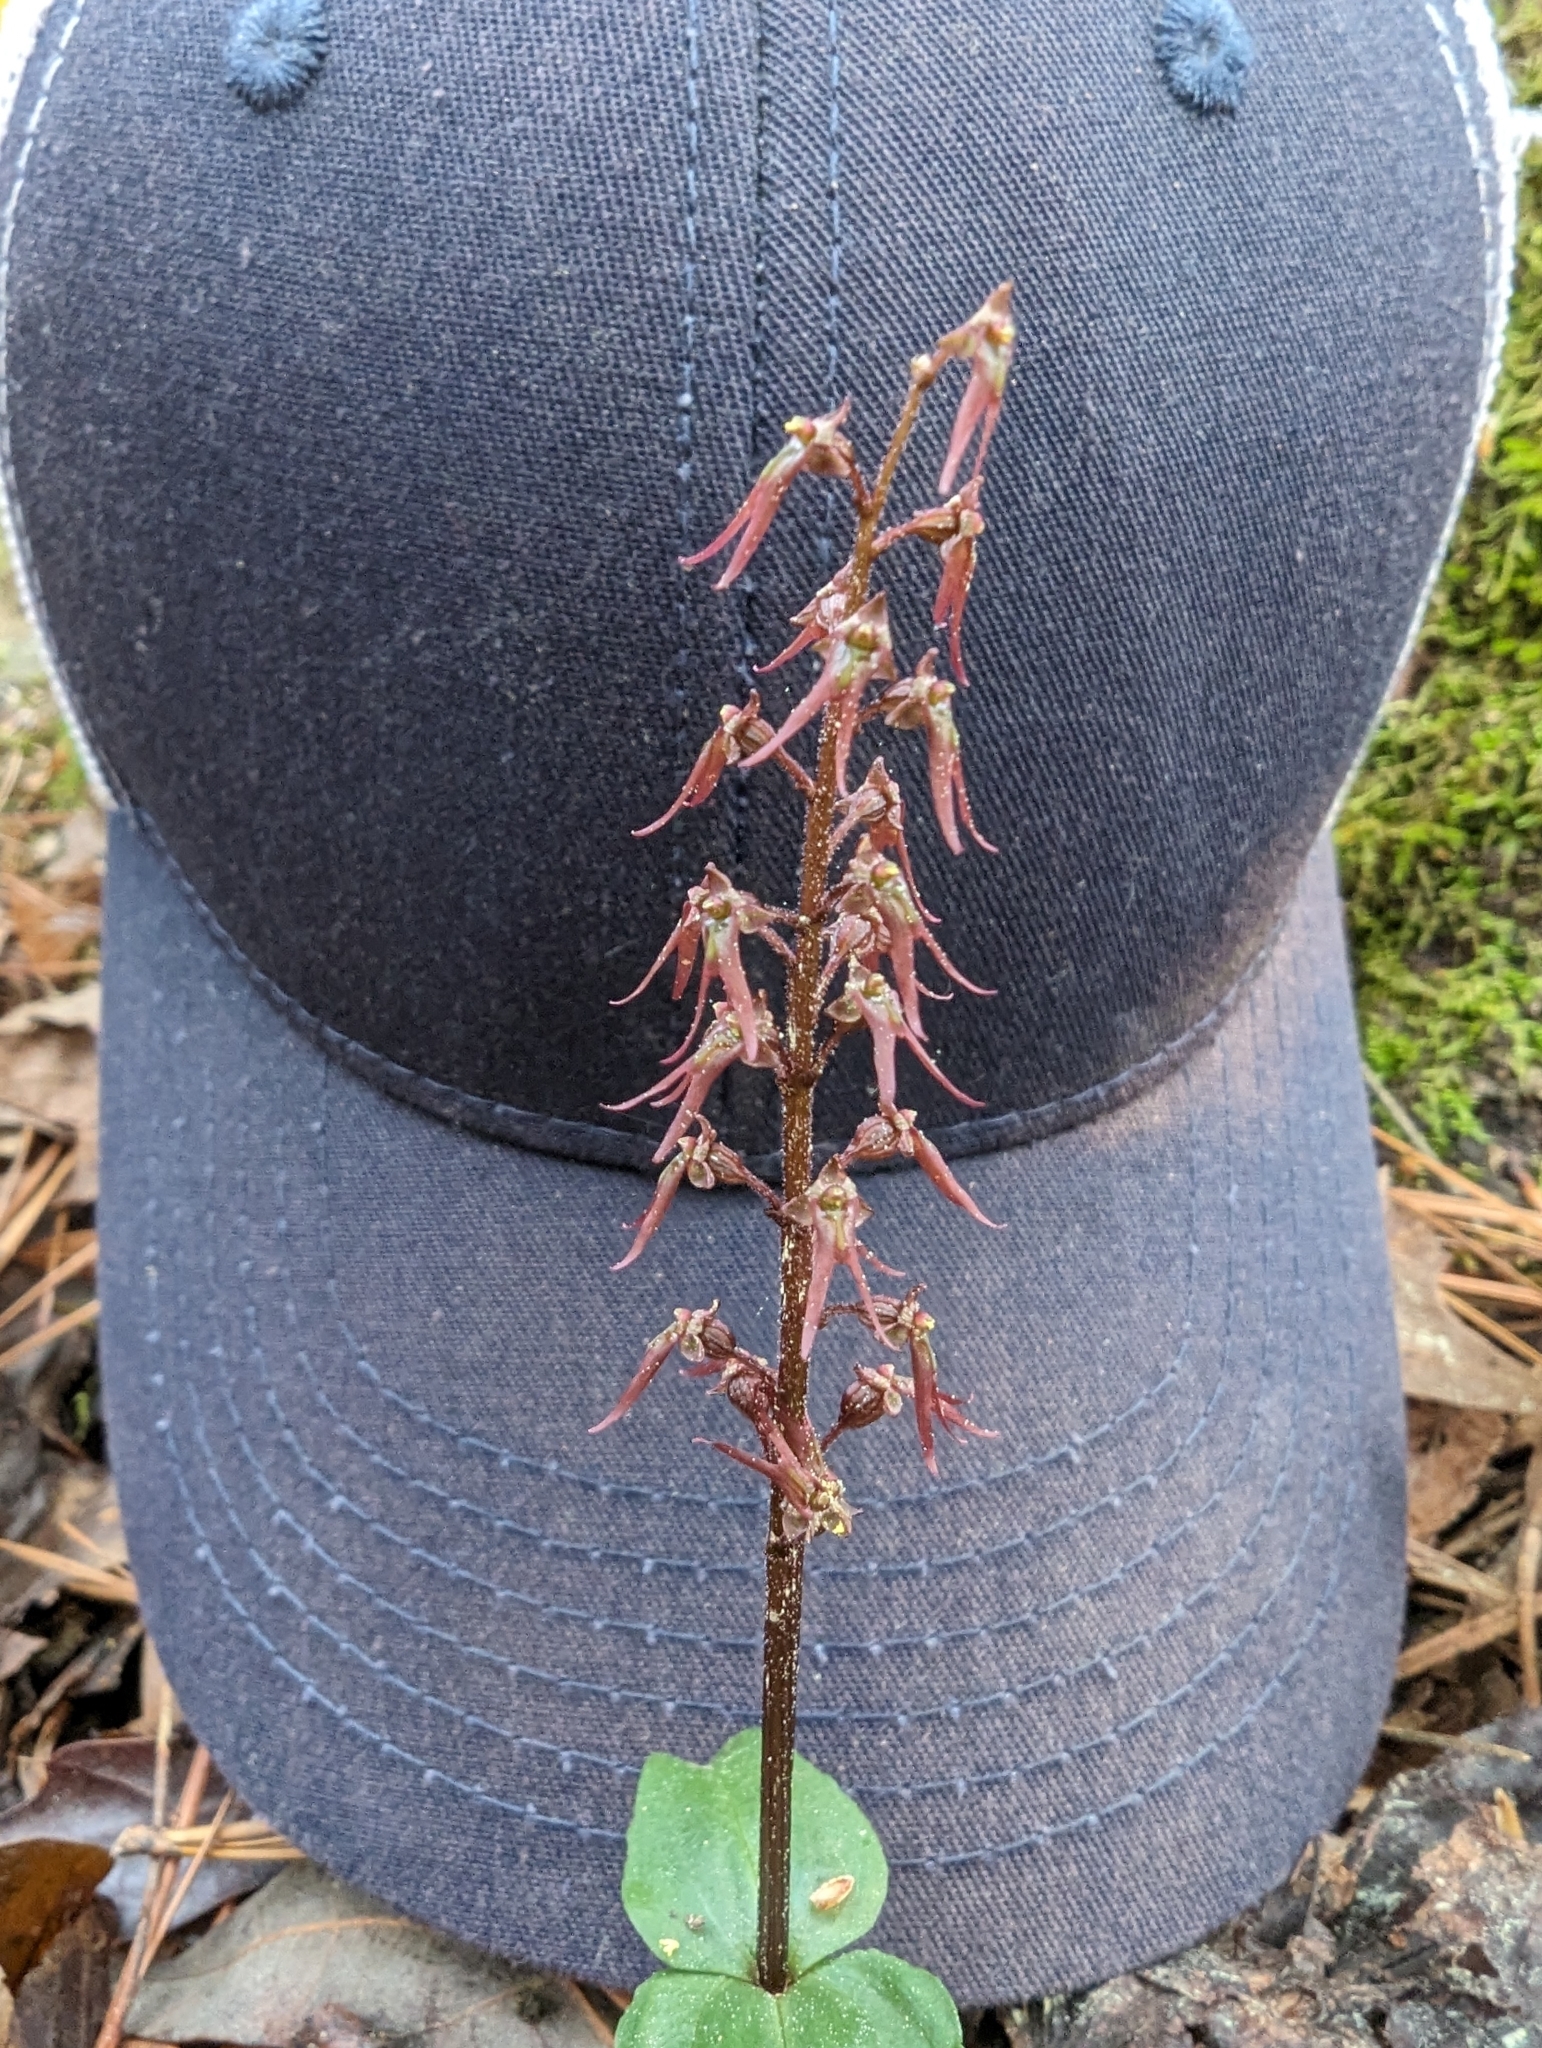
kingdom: Plantae
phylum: Tracheophyta
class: Liliopsida
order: Asparagales
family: Orchidaceae
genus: Neottia
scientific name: Neottia bifolia
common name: Southern twayblade
